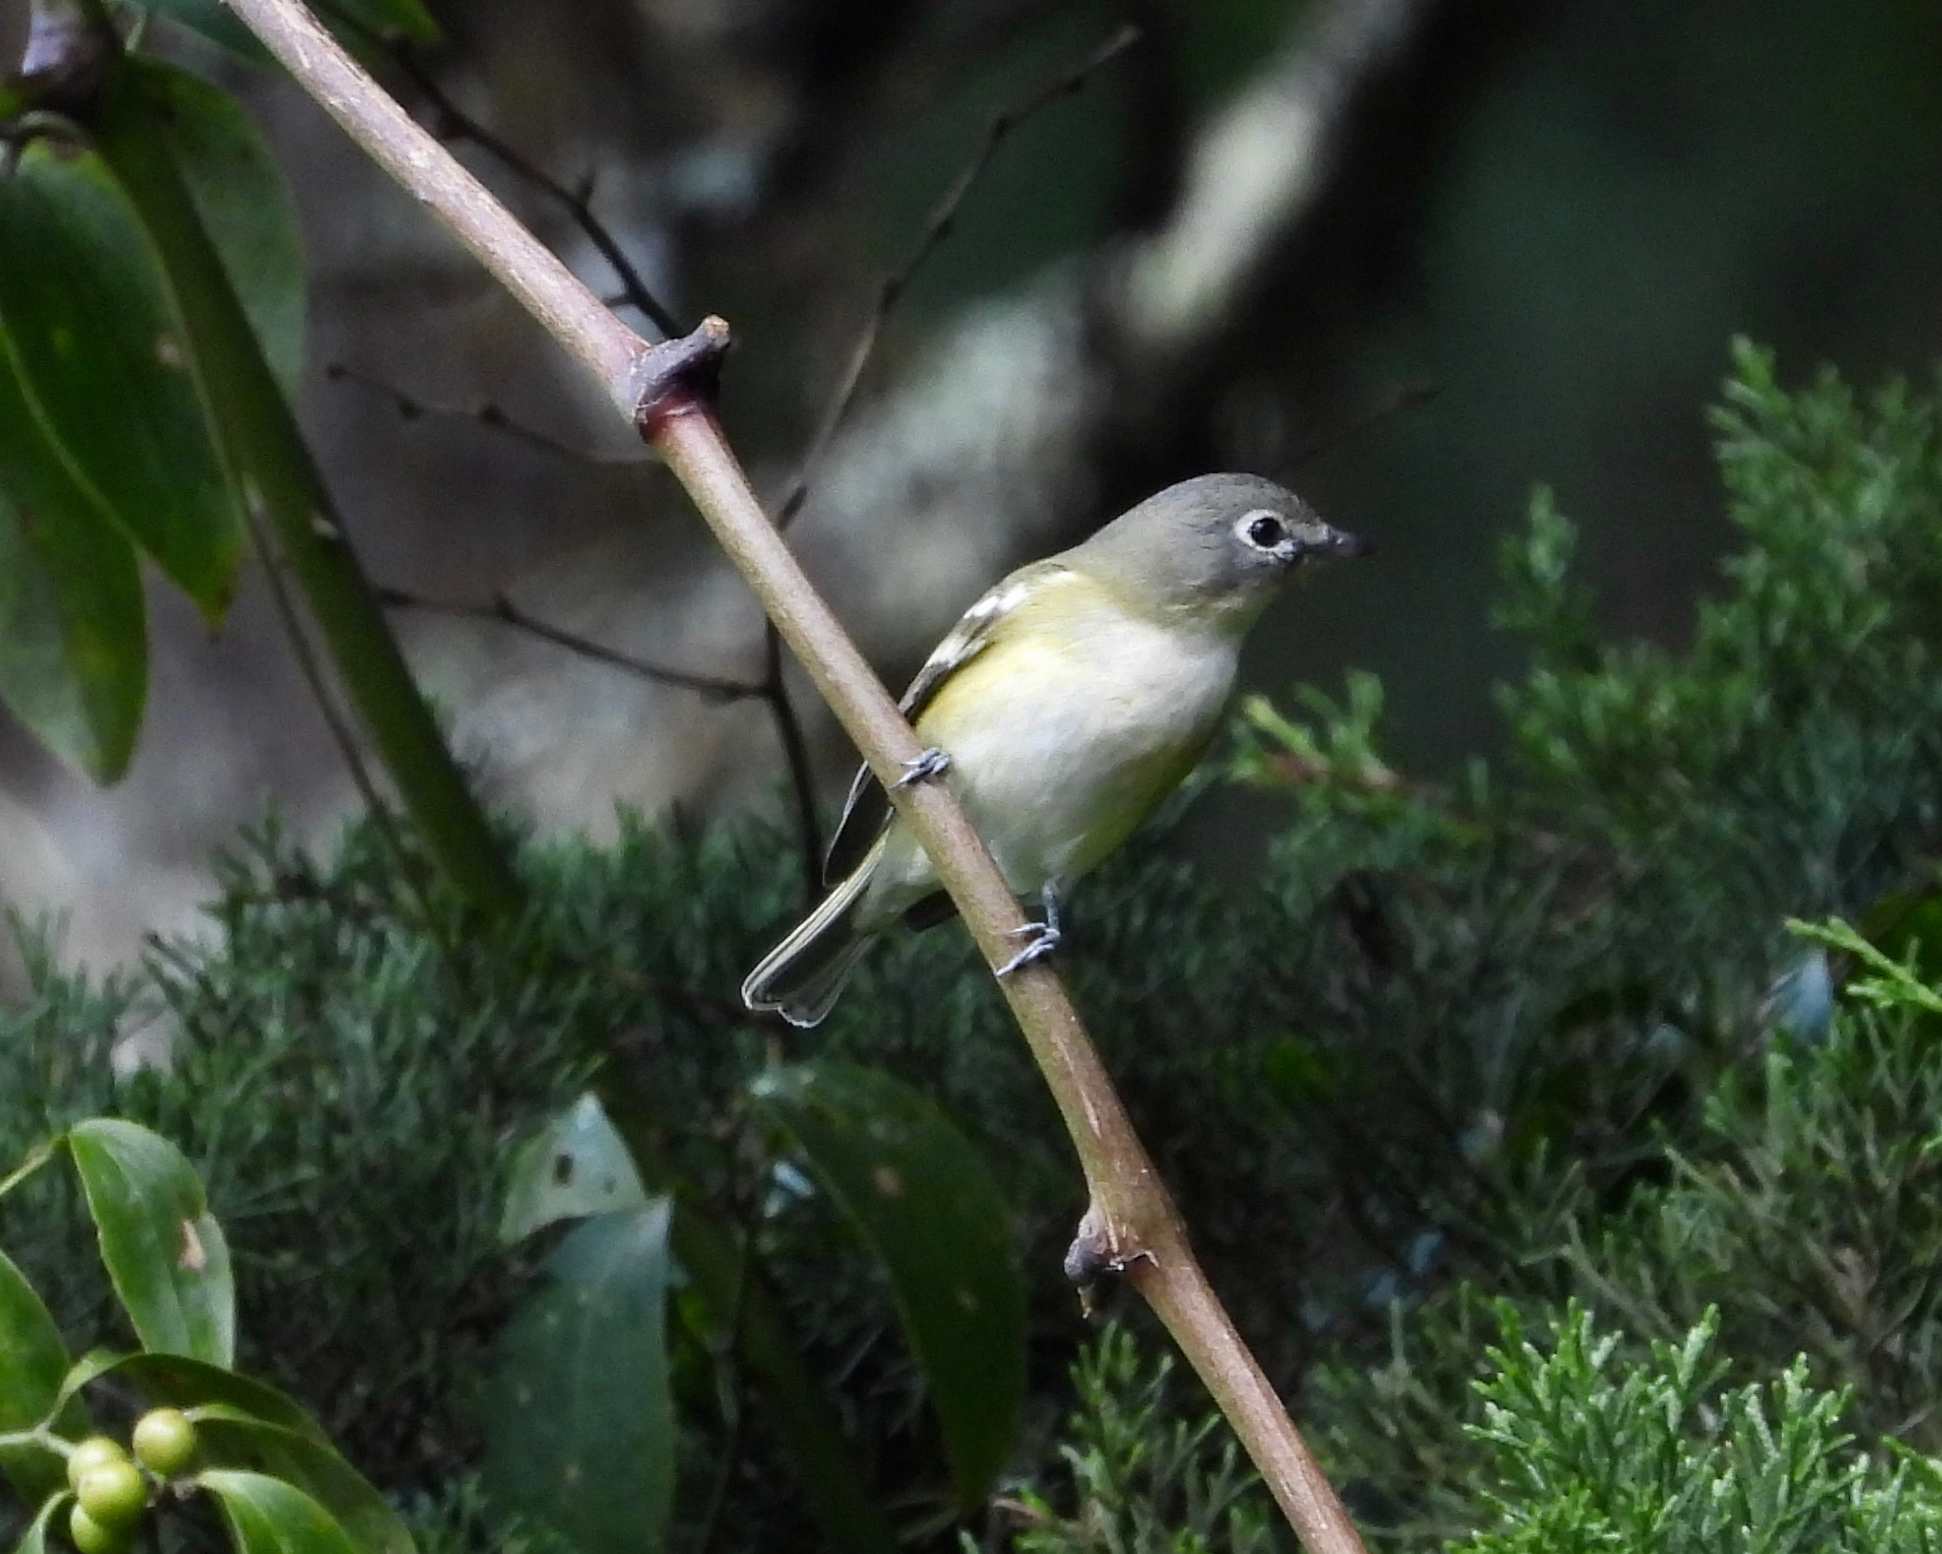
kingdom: Animalia
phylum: Chordata
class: Aves
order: Passeriformes
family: Vireonidae
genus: Vireo
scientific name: Vireo solitarius
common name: Blue-headed vireo
